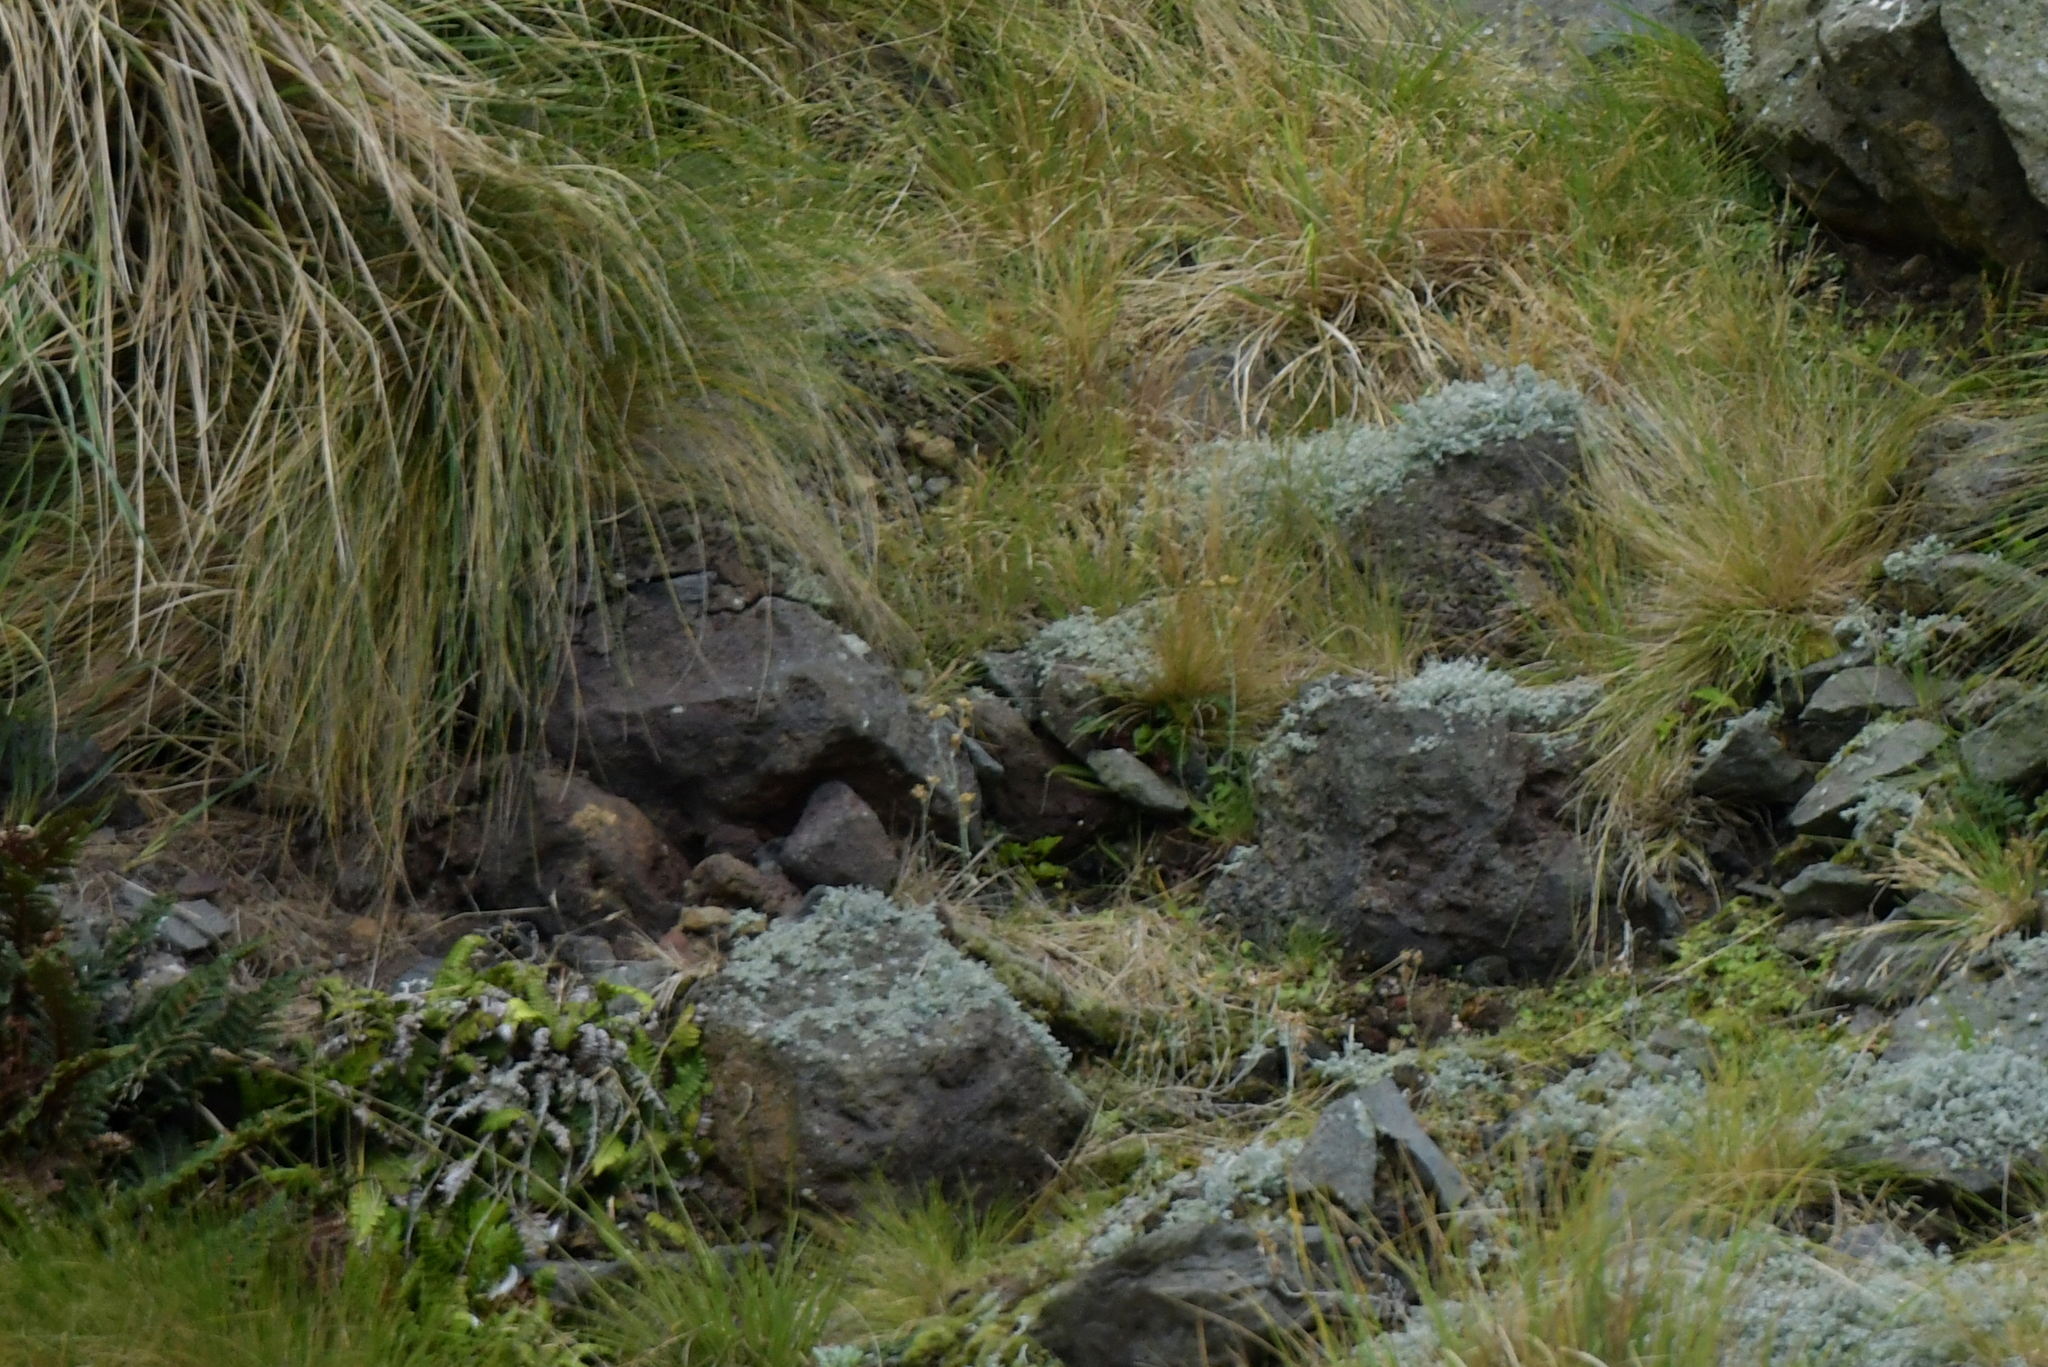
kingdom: Plantae
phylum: Tracheophyta
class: Magnoliopsida
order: Asterales
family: Asteraceae
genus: Helichrysum
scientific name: Helichrysum luteoalbum
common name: Daisy
